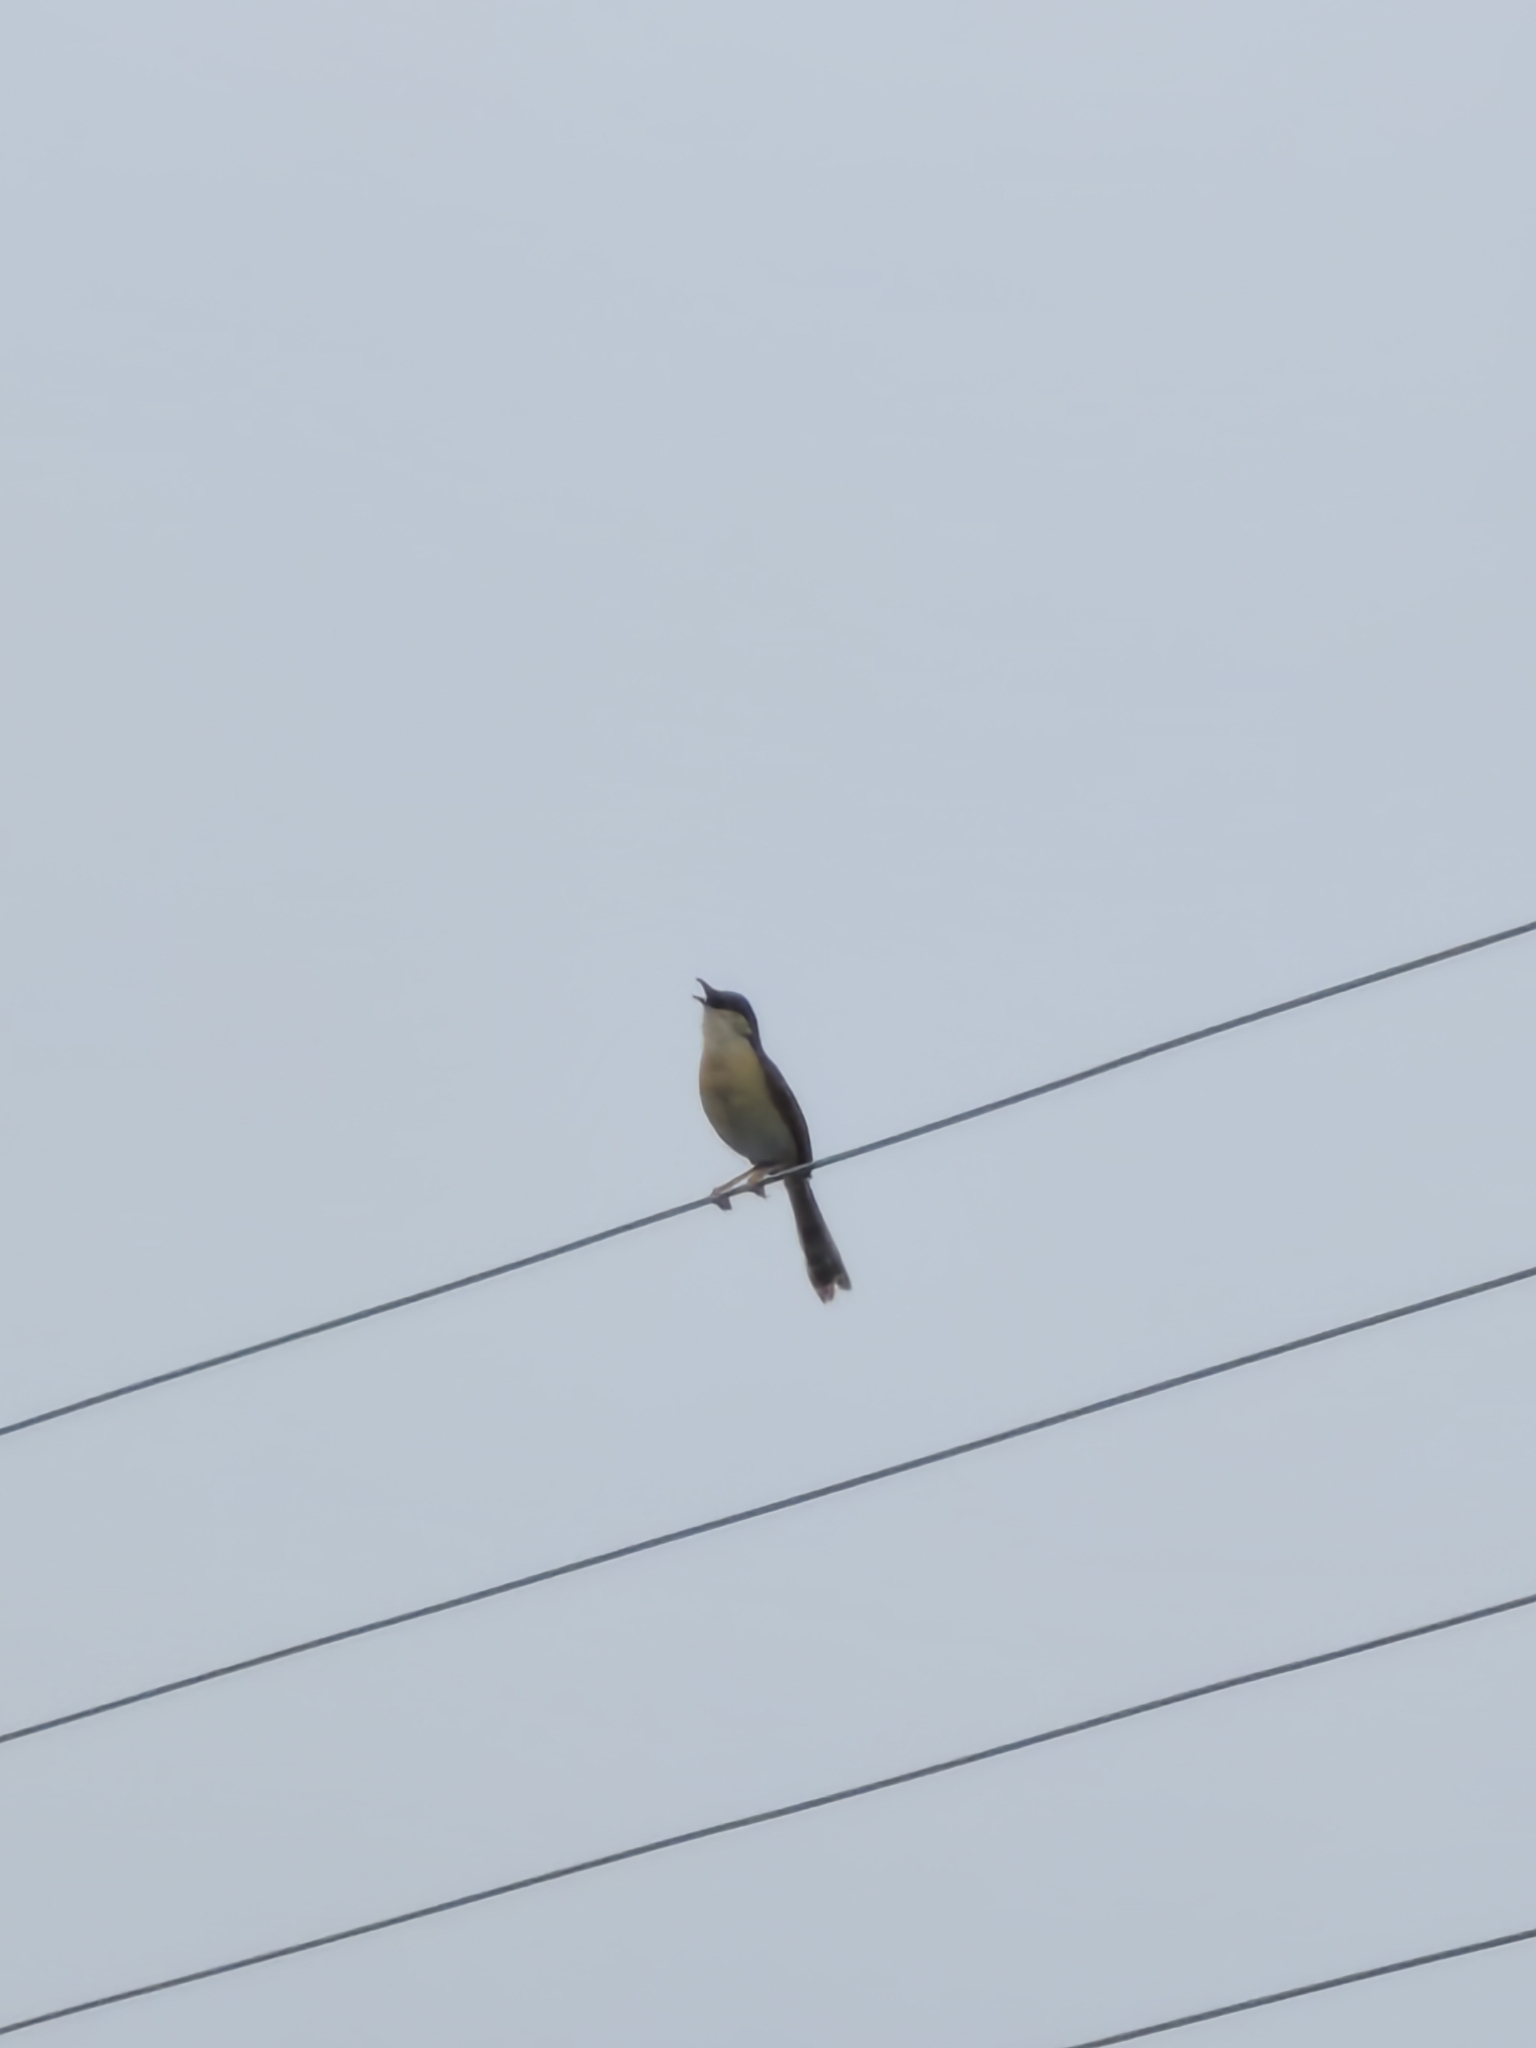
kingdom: Animalia
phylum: Chordata
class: Aves
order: Passeriformes
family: Cisticolidae
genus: Prinia
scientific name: Prinia socialis
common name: Ashy prinia
